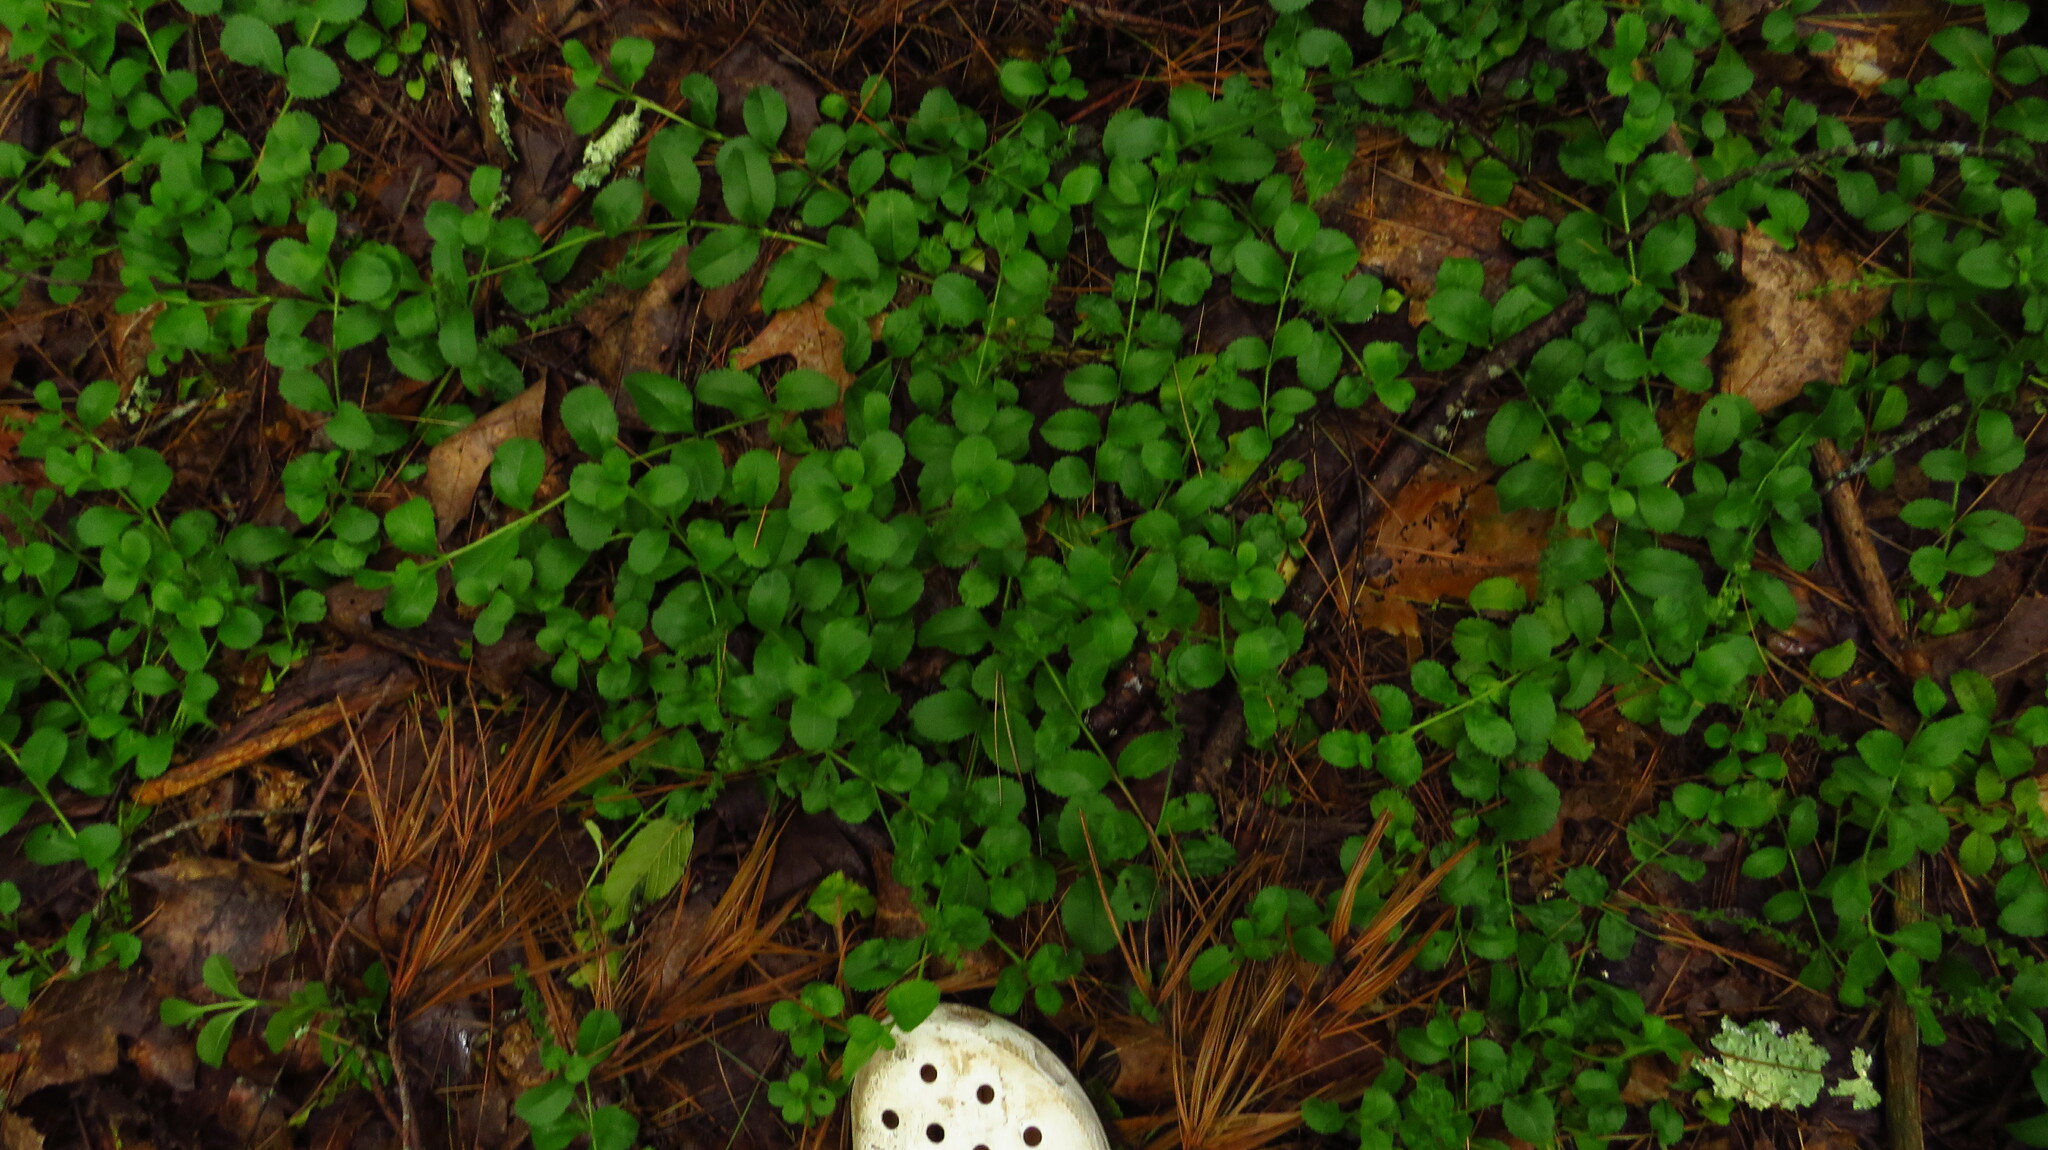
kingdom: Plantae
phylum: Tracheophyta
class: Magnoliopsida
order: Lamiales
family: Plantaginaceae
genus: Veronica
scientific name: Veronica officinalis
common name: Common speedwell
